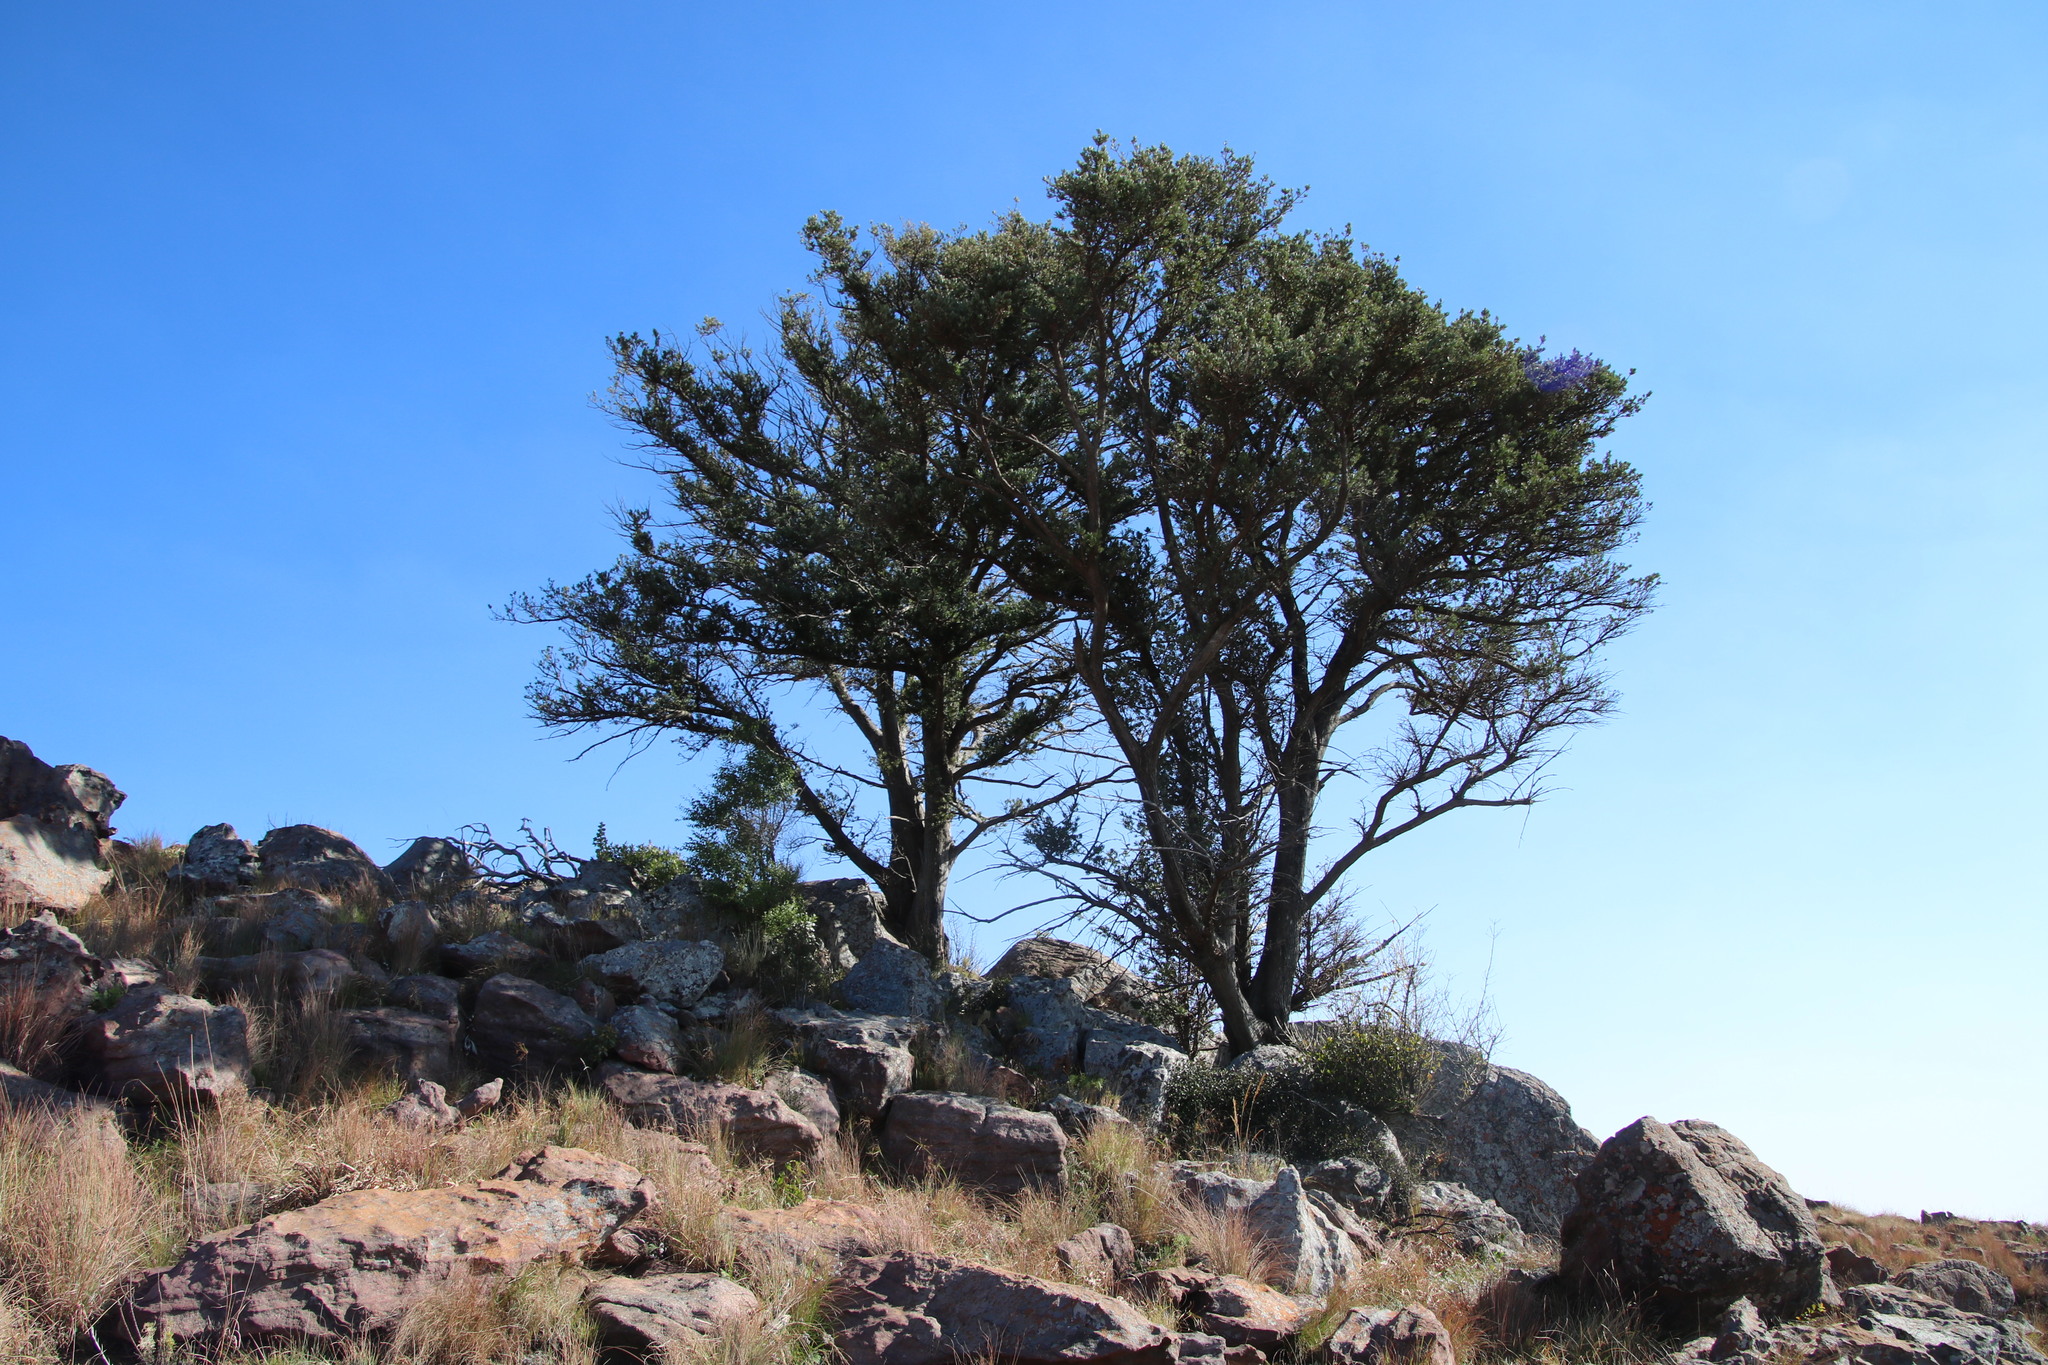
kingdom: Plantae
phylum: Tracheophyta
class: Pinopsida
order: Pinales
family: Podocarpaceae
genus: Podocarpus
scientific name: Podocarpus latifolius
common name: True yellowwood
